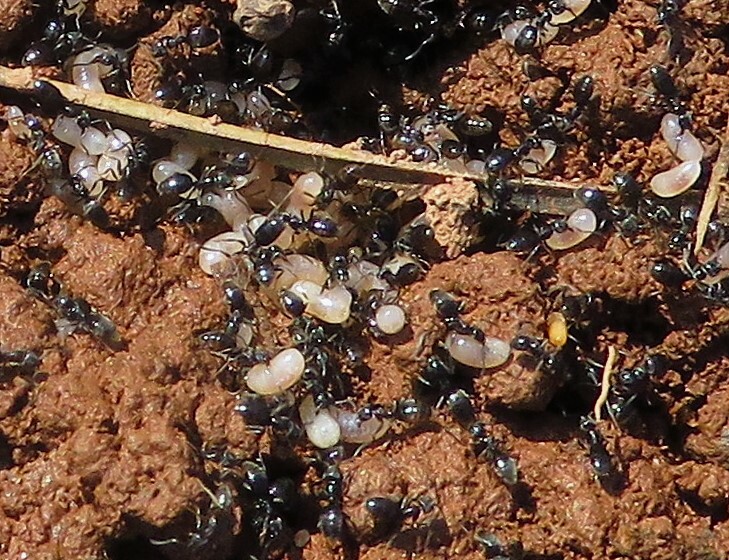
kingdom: Animalia
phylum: Arthropoda
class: Insecta
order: Hymenoptera
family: Formicidae
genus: Tapinoma
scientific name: Tapinoma sessile
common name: Odorous house ant
